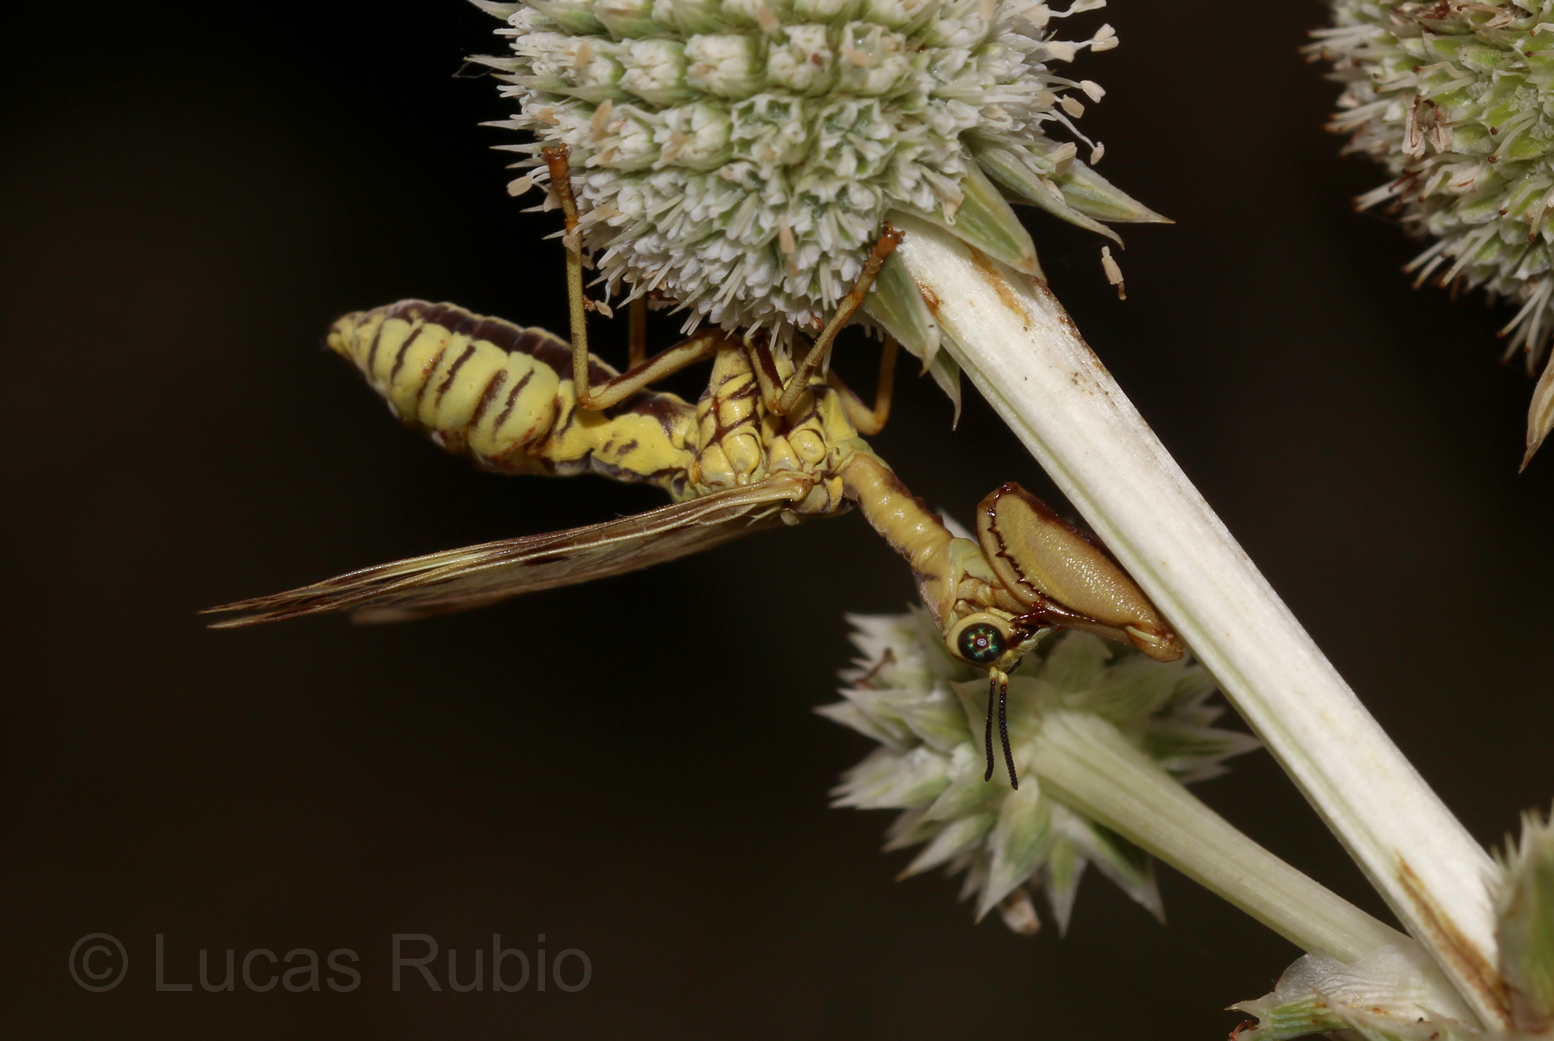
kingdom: Animalia
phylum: Arthropoda
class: Insecta
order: Neuroptera
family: Mantispidae
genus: Paramantispa
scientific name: Paramantispa ambusta
